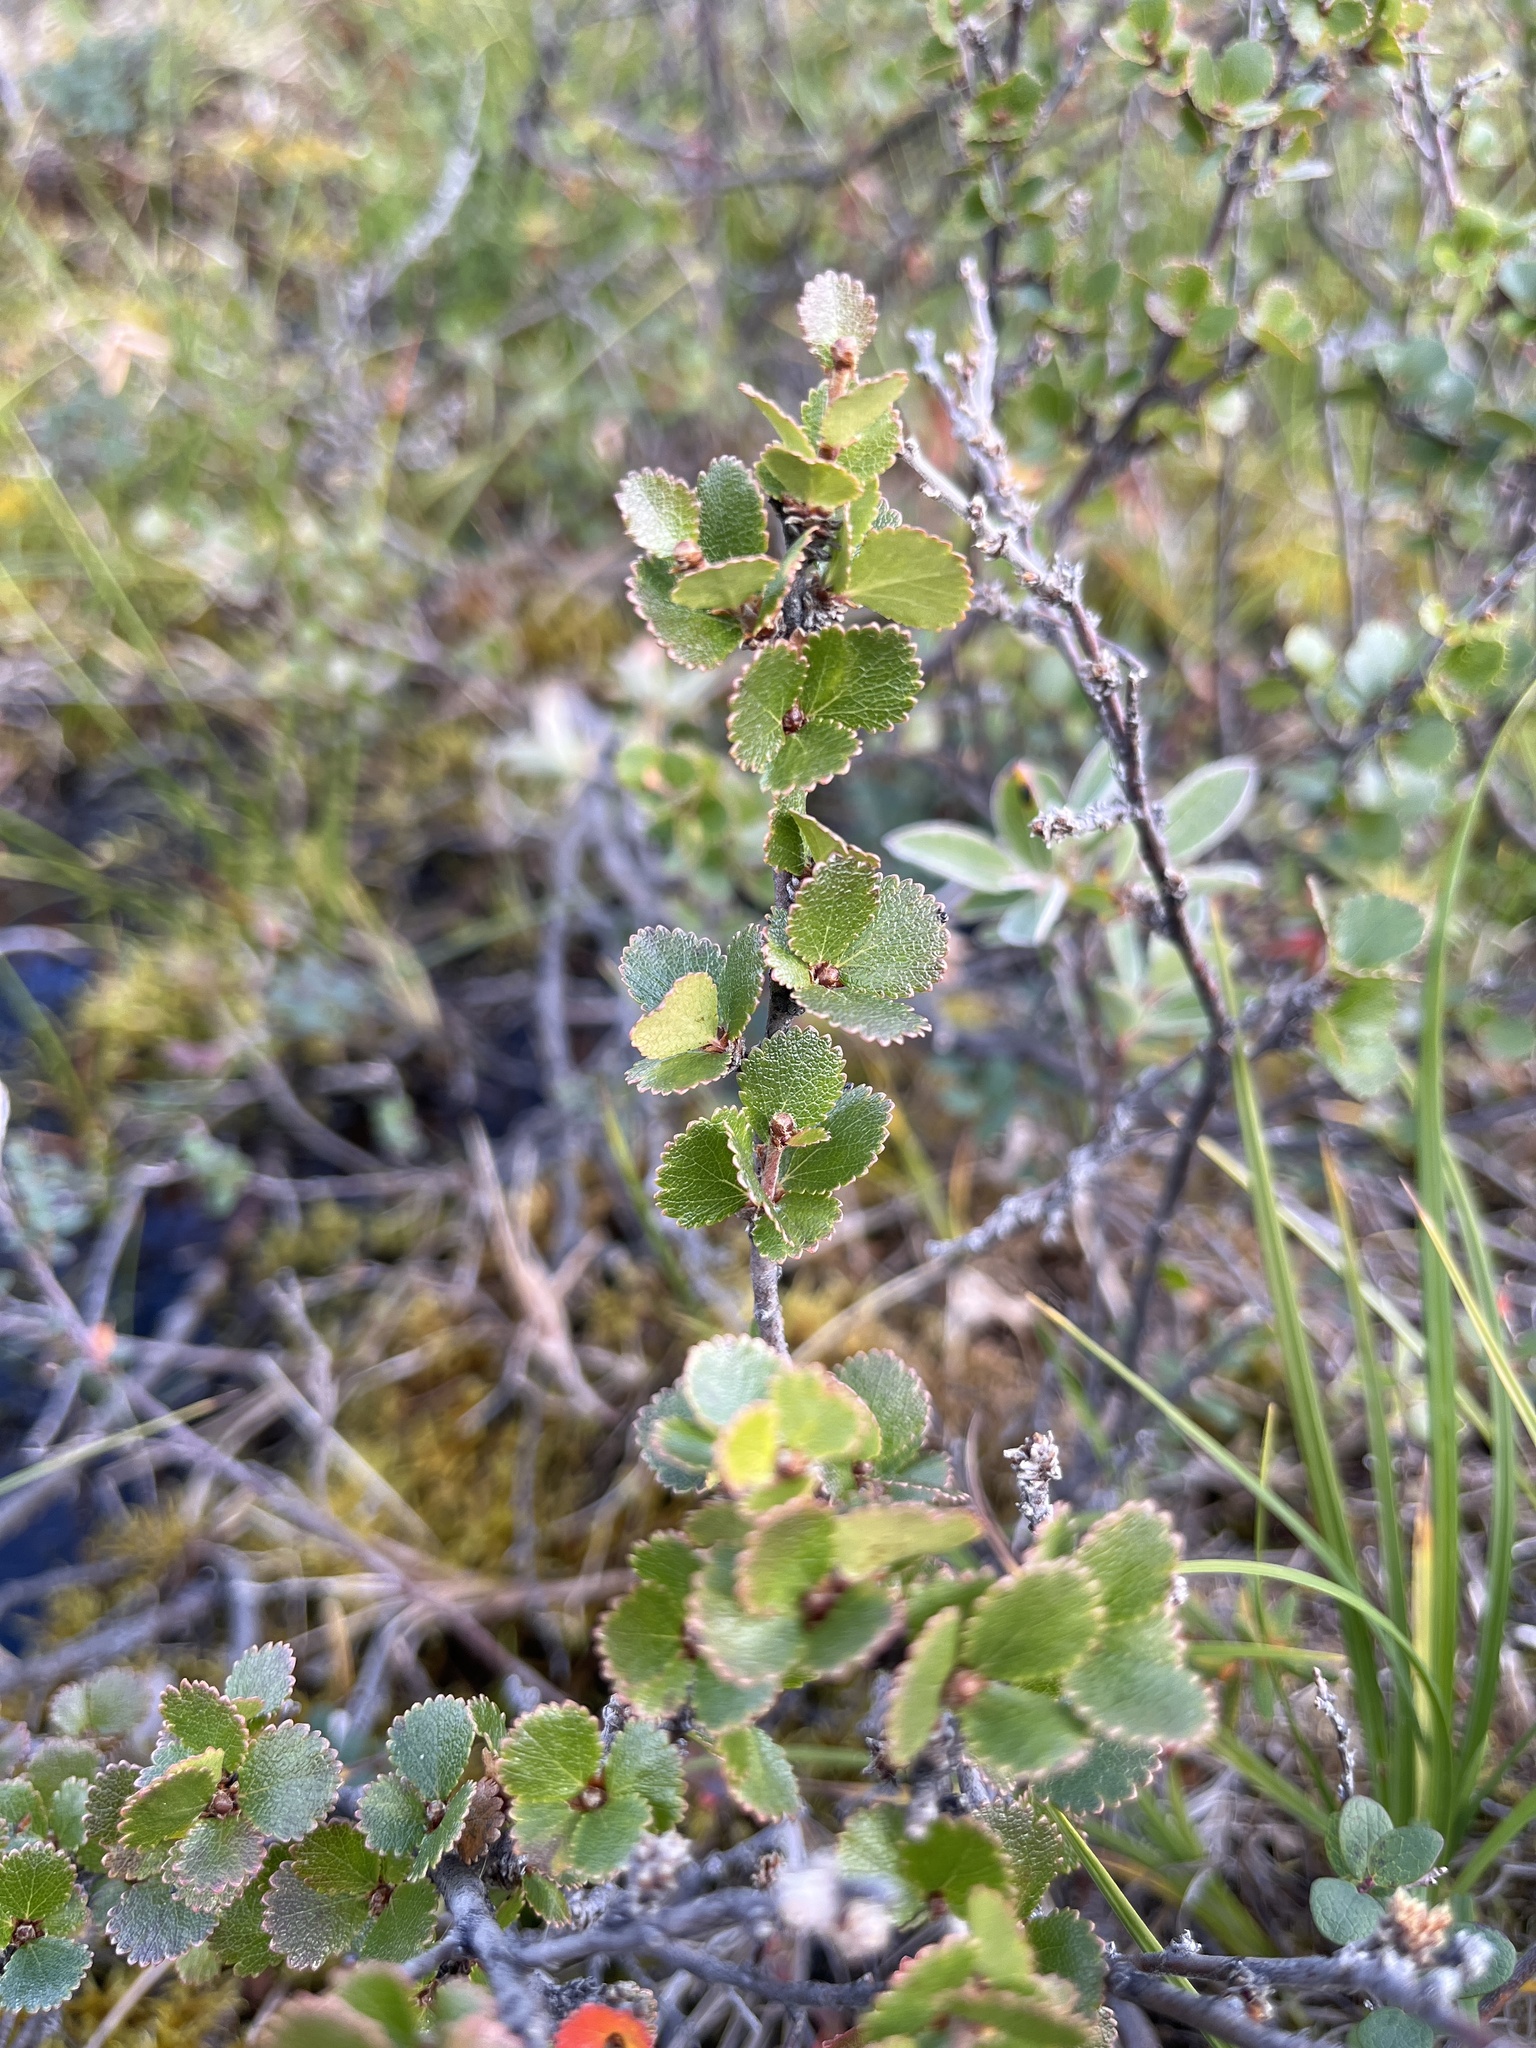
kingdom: Plantae
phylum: Tracheophyta
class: Magnoliopsida
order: Fagales
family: Betulaceae
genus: Betula
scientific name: Betula nana
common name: Arctic dwarf birch
